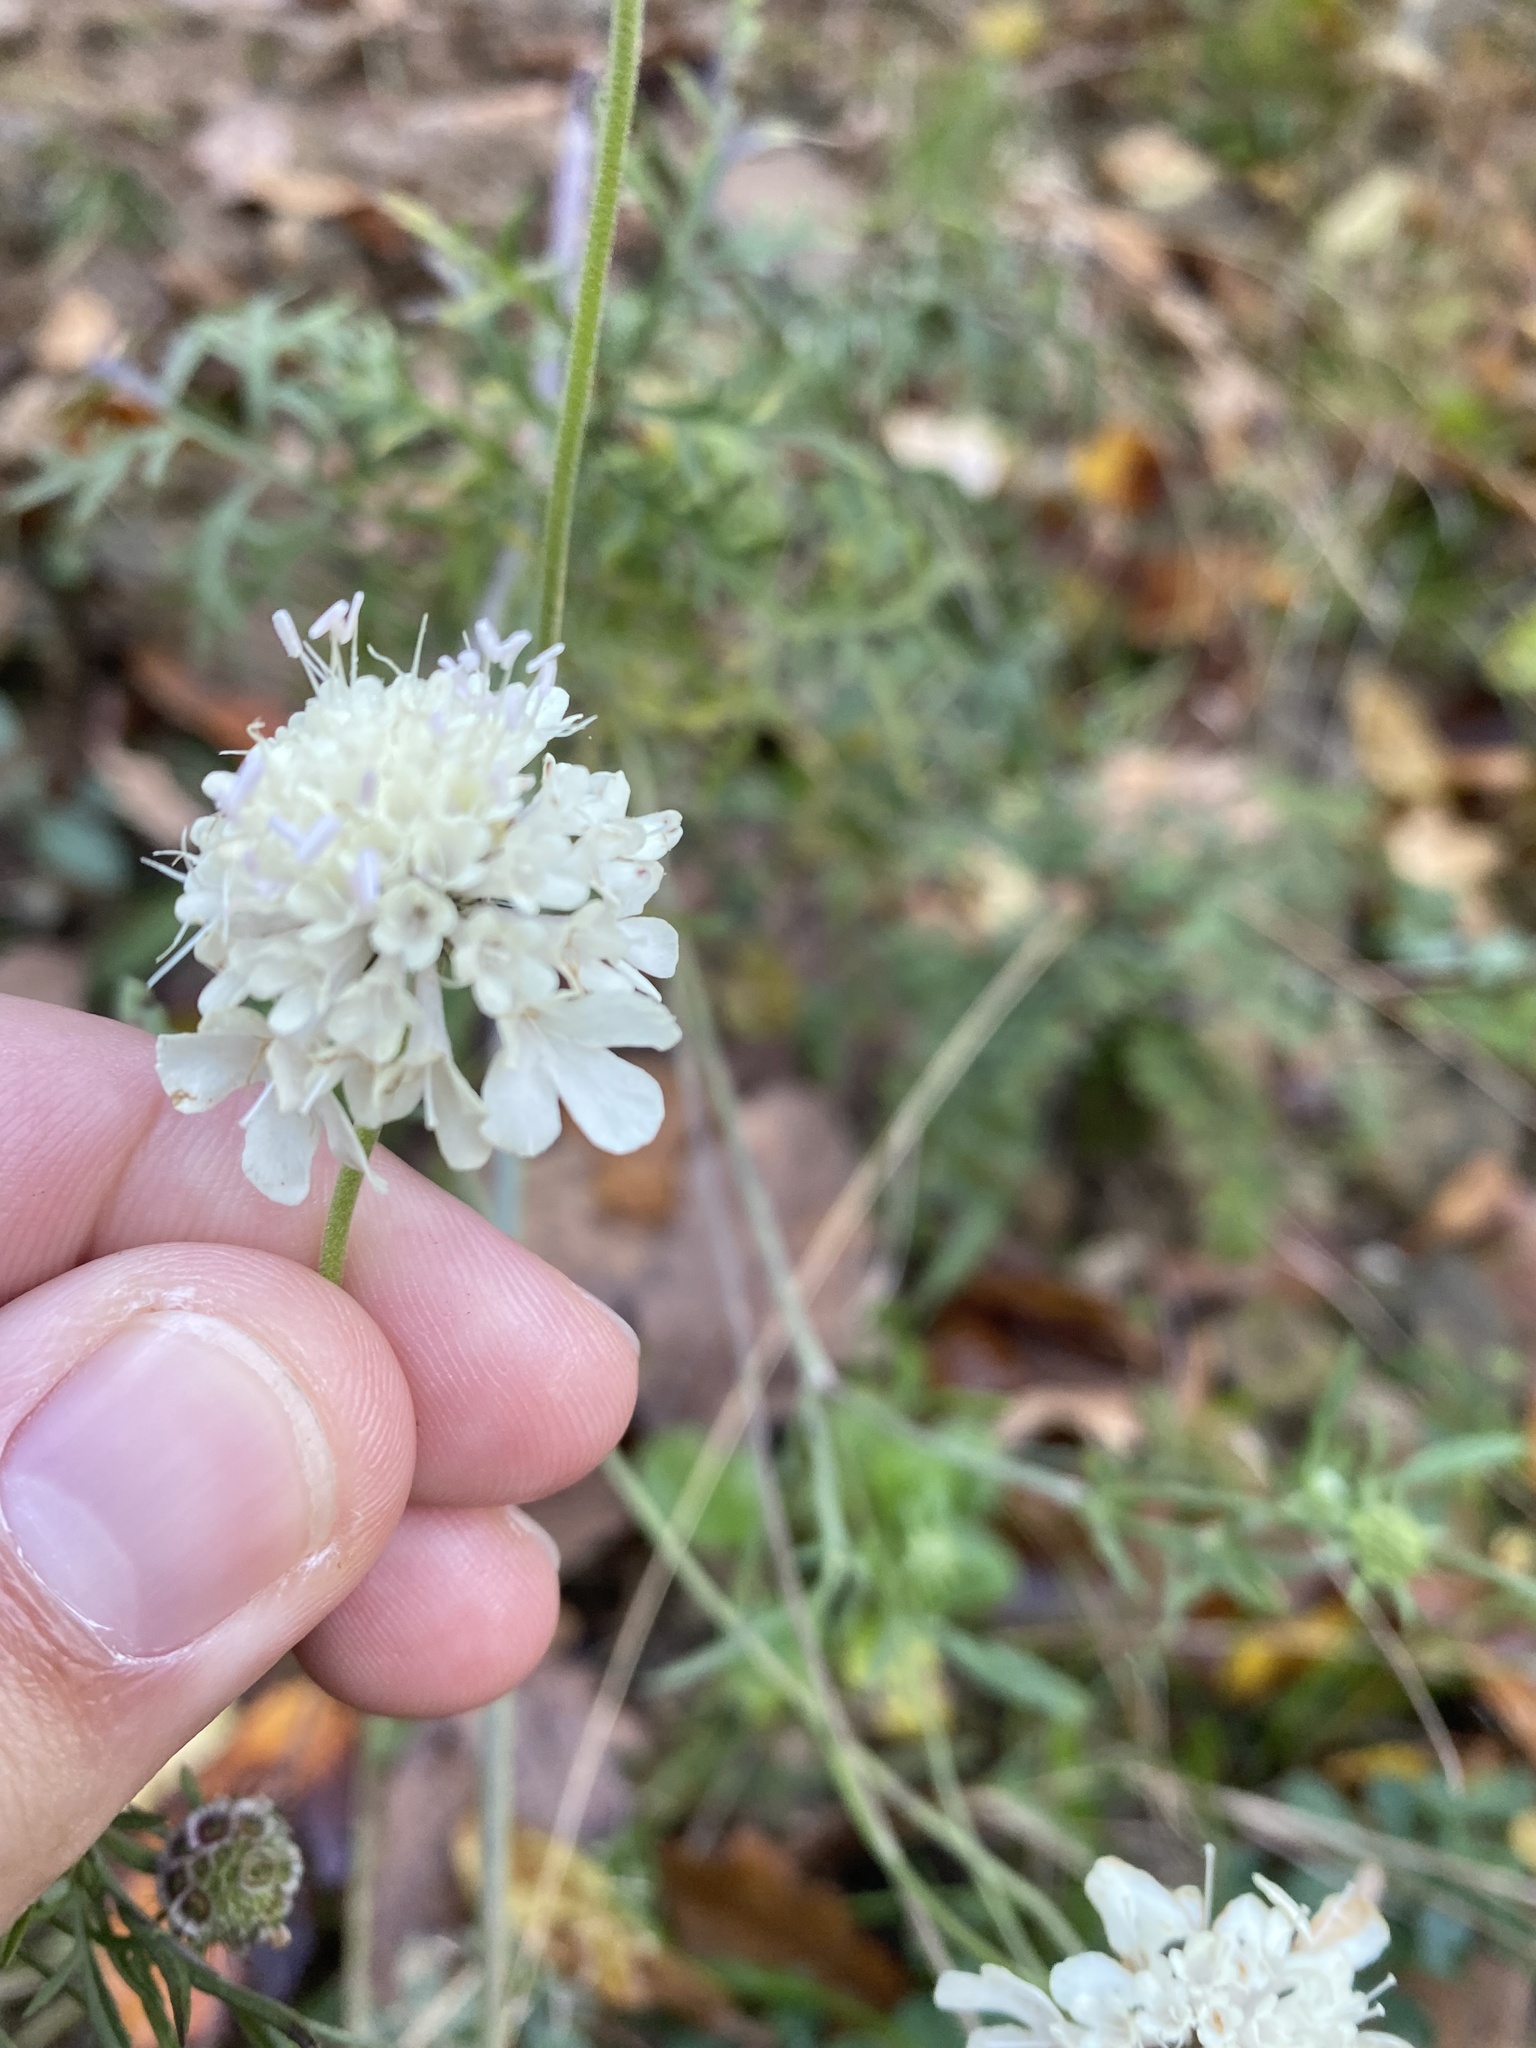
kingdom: Plantae
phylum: Tracheophyta
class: Magnoliopsida
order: Dipsacales
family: Caprifoliaceae
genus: Scabiosa
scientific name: Scabiosa ochroleuca
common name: Cream pincushions
